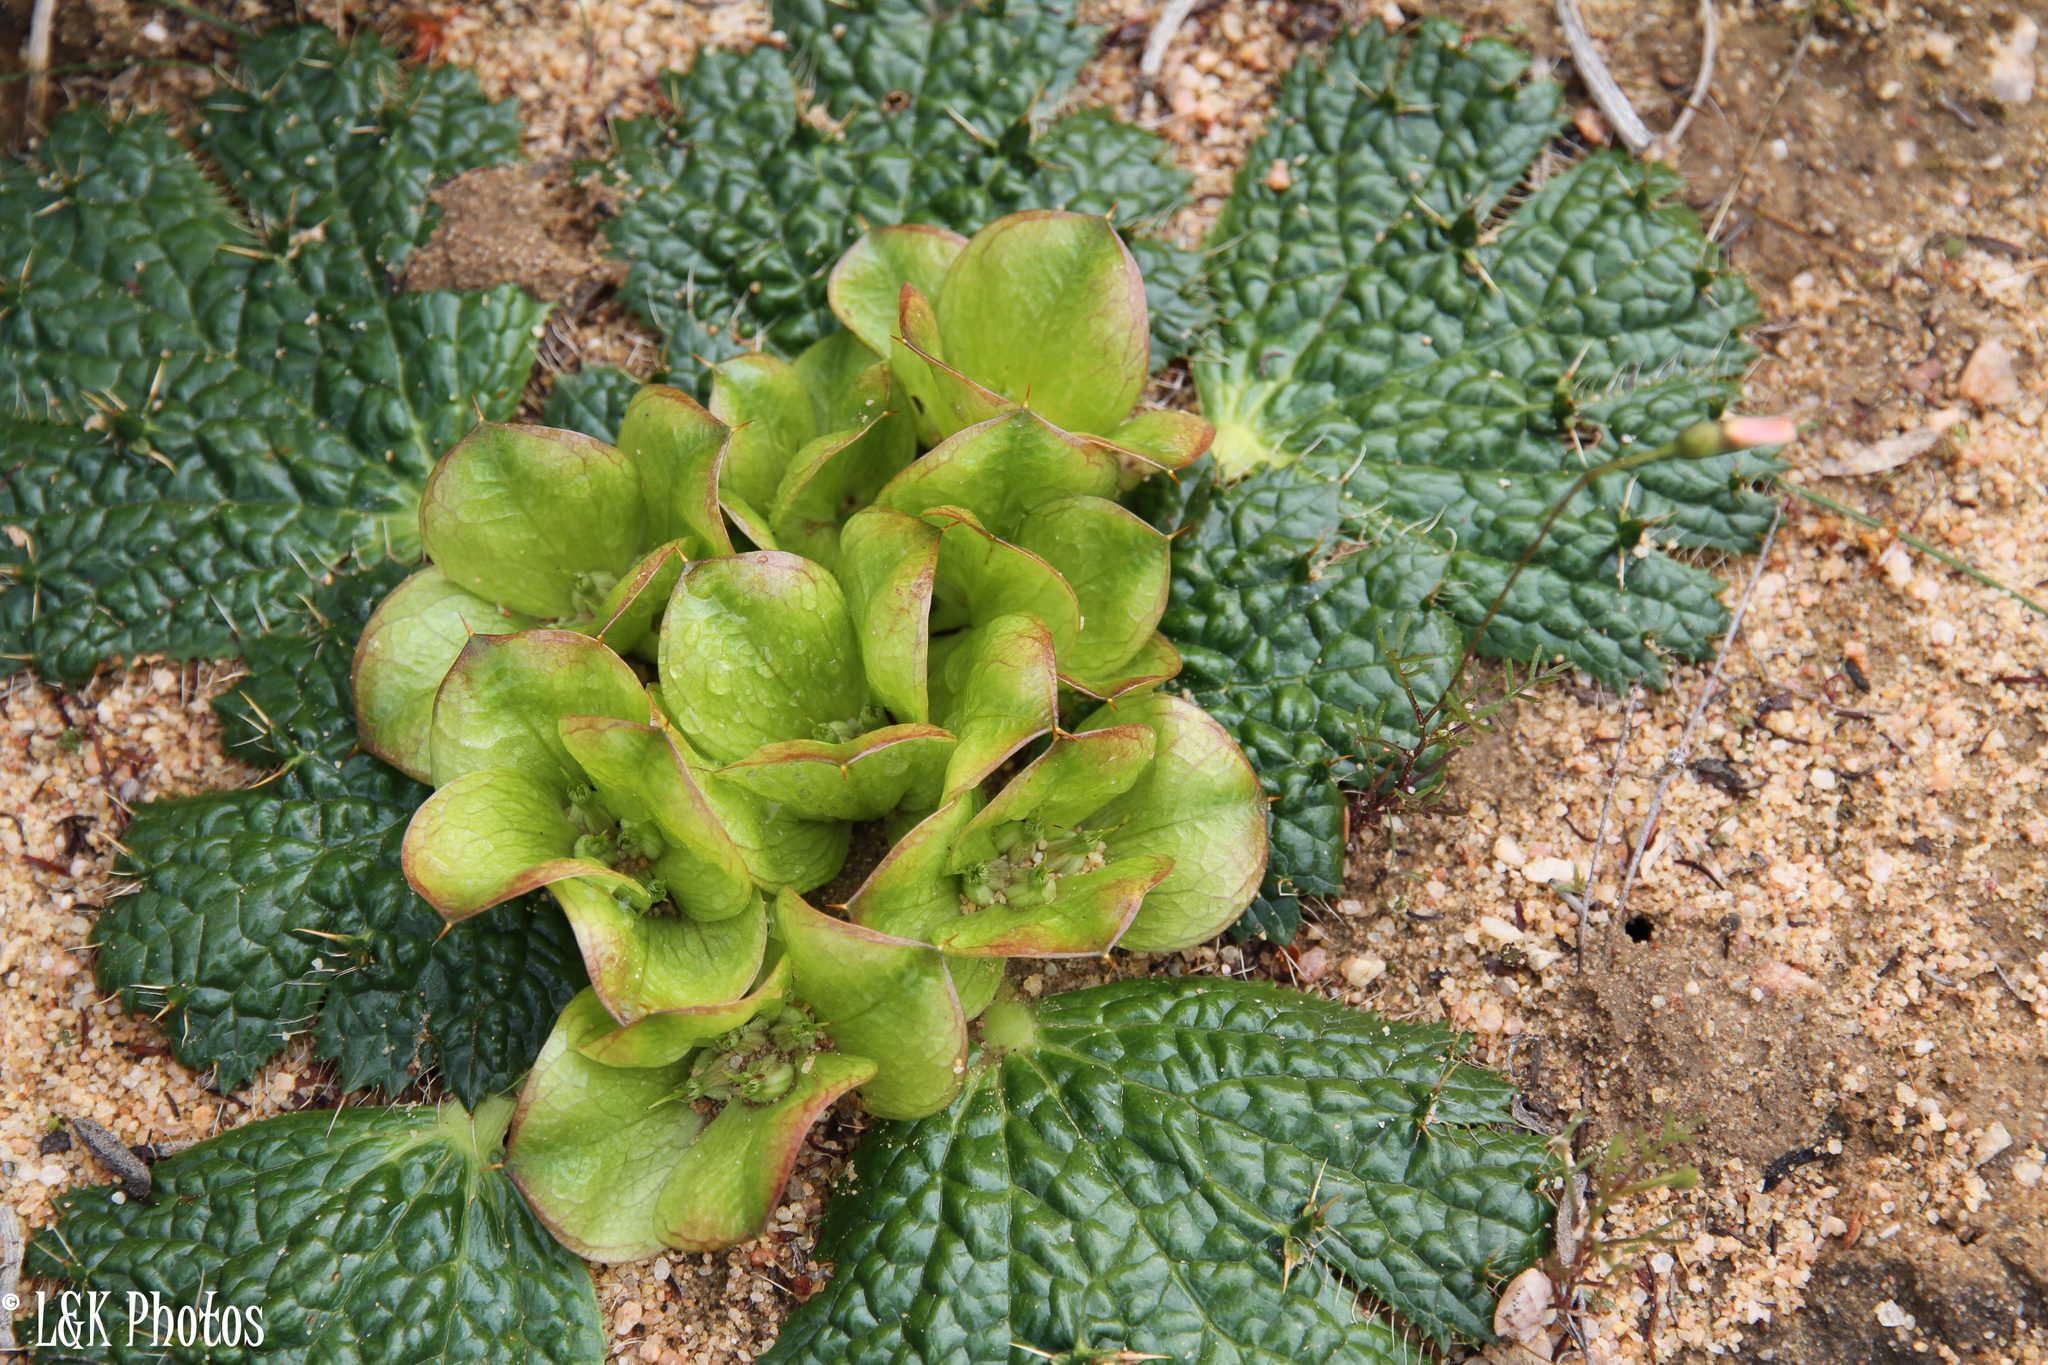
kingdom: Plantae
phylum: Tracheophyta
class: Magnoliopsida
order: Apiales
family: Apiaceae
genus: Arctopus
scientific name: Arctopus monacanthus
